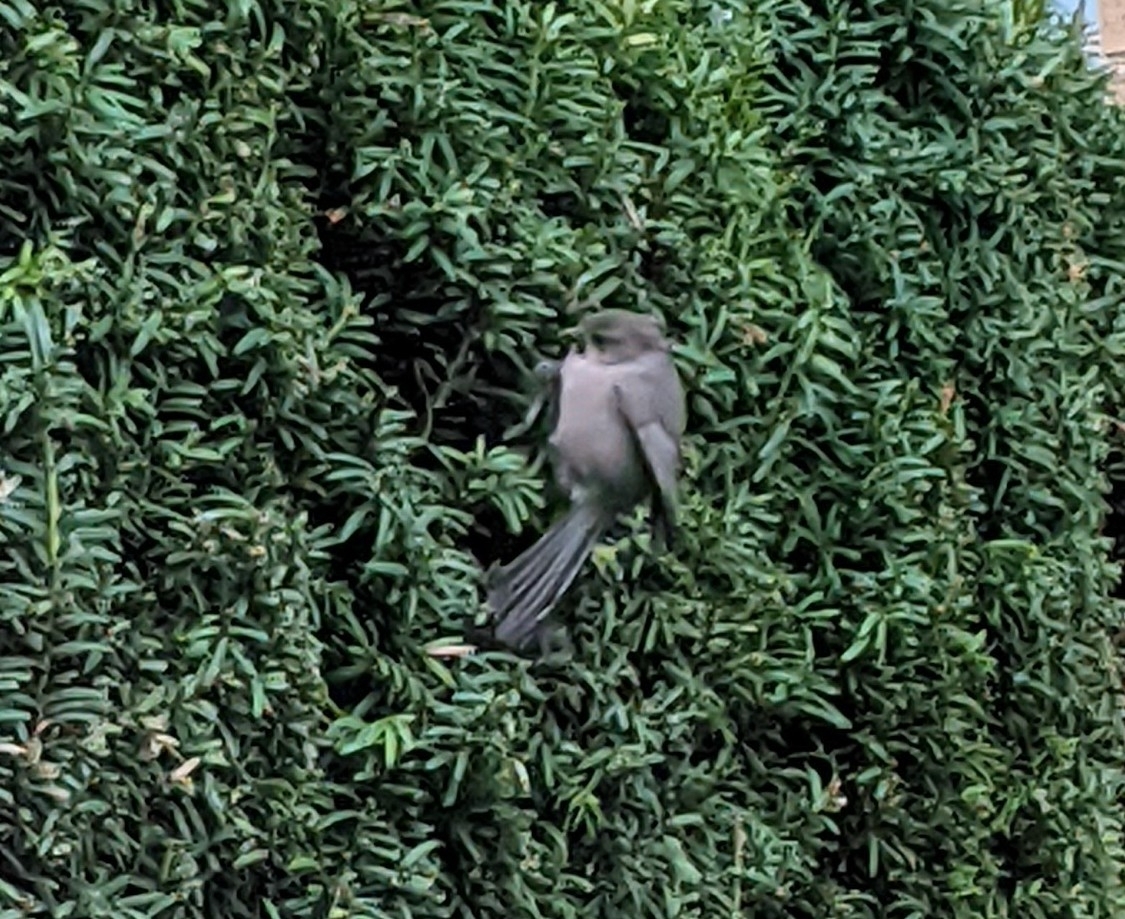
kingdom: Animalia
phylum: Chordata
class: Aves
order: Passeriformes
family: Aegithalidae
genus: Psaltriparus
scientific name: Psaltriparus minimus
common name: American bushtit
